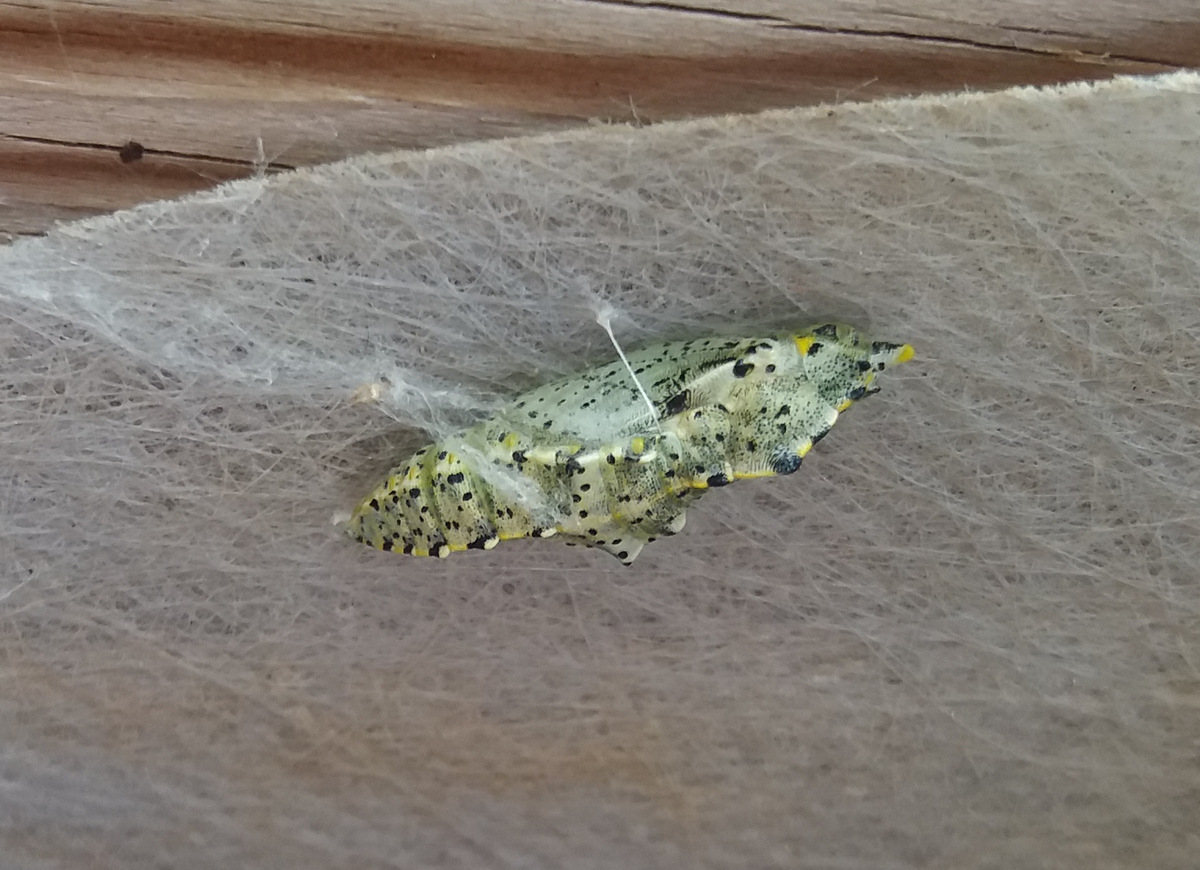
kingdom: Animalia
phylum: Arthropoda
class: Insecta
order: Lepidoptera
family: Pieridae
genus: Pieris
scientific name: Pieris brassicae
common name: Large white
